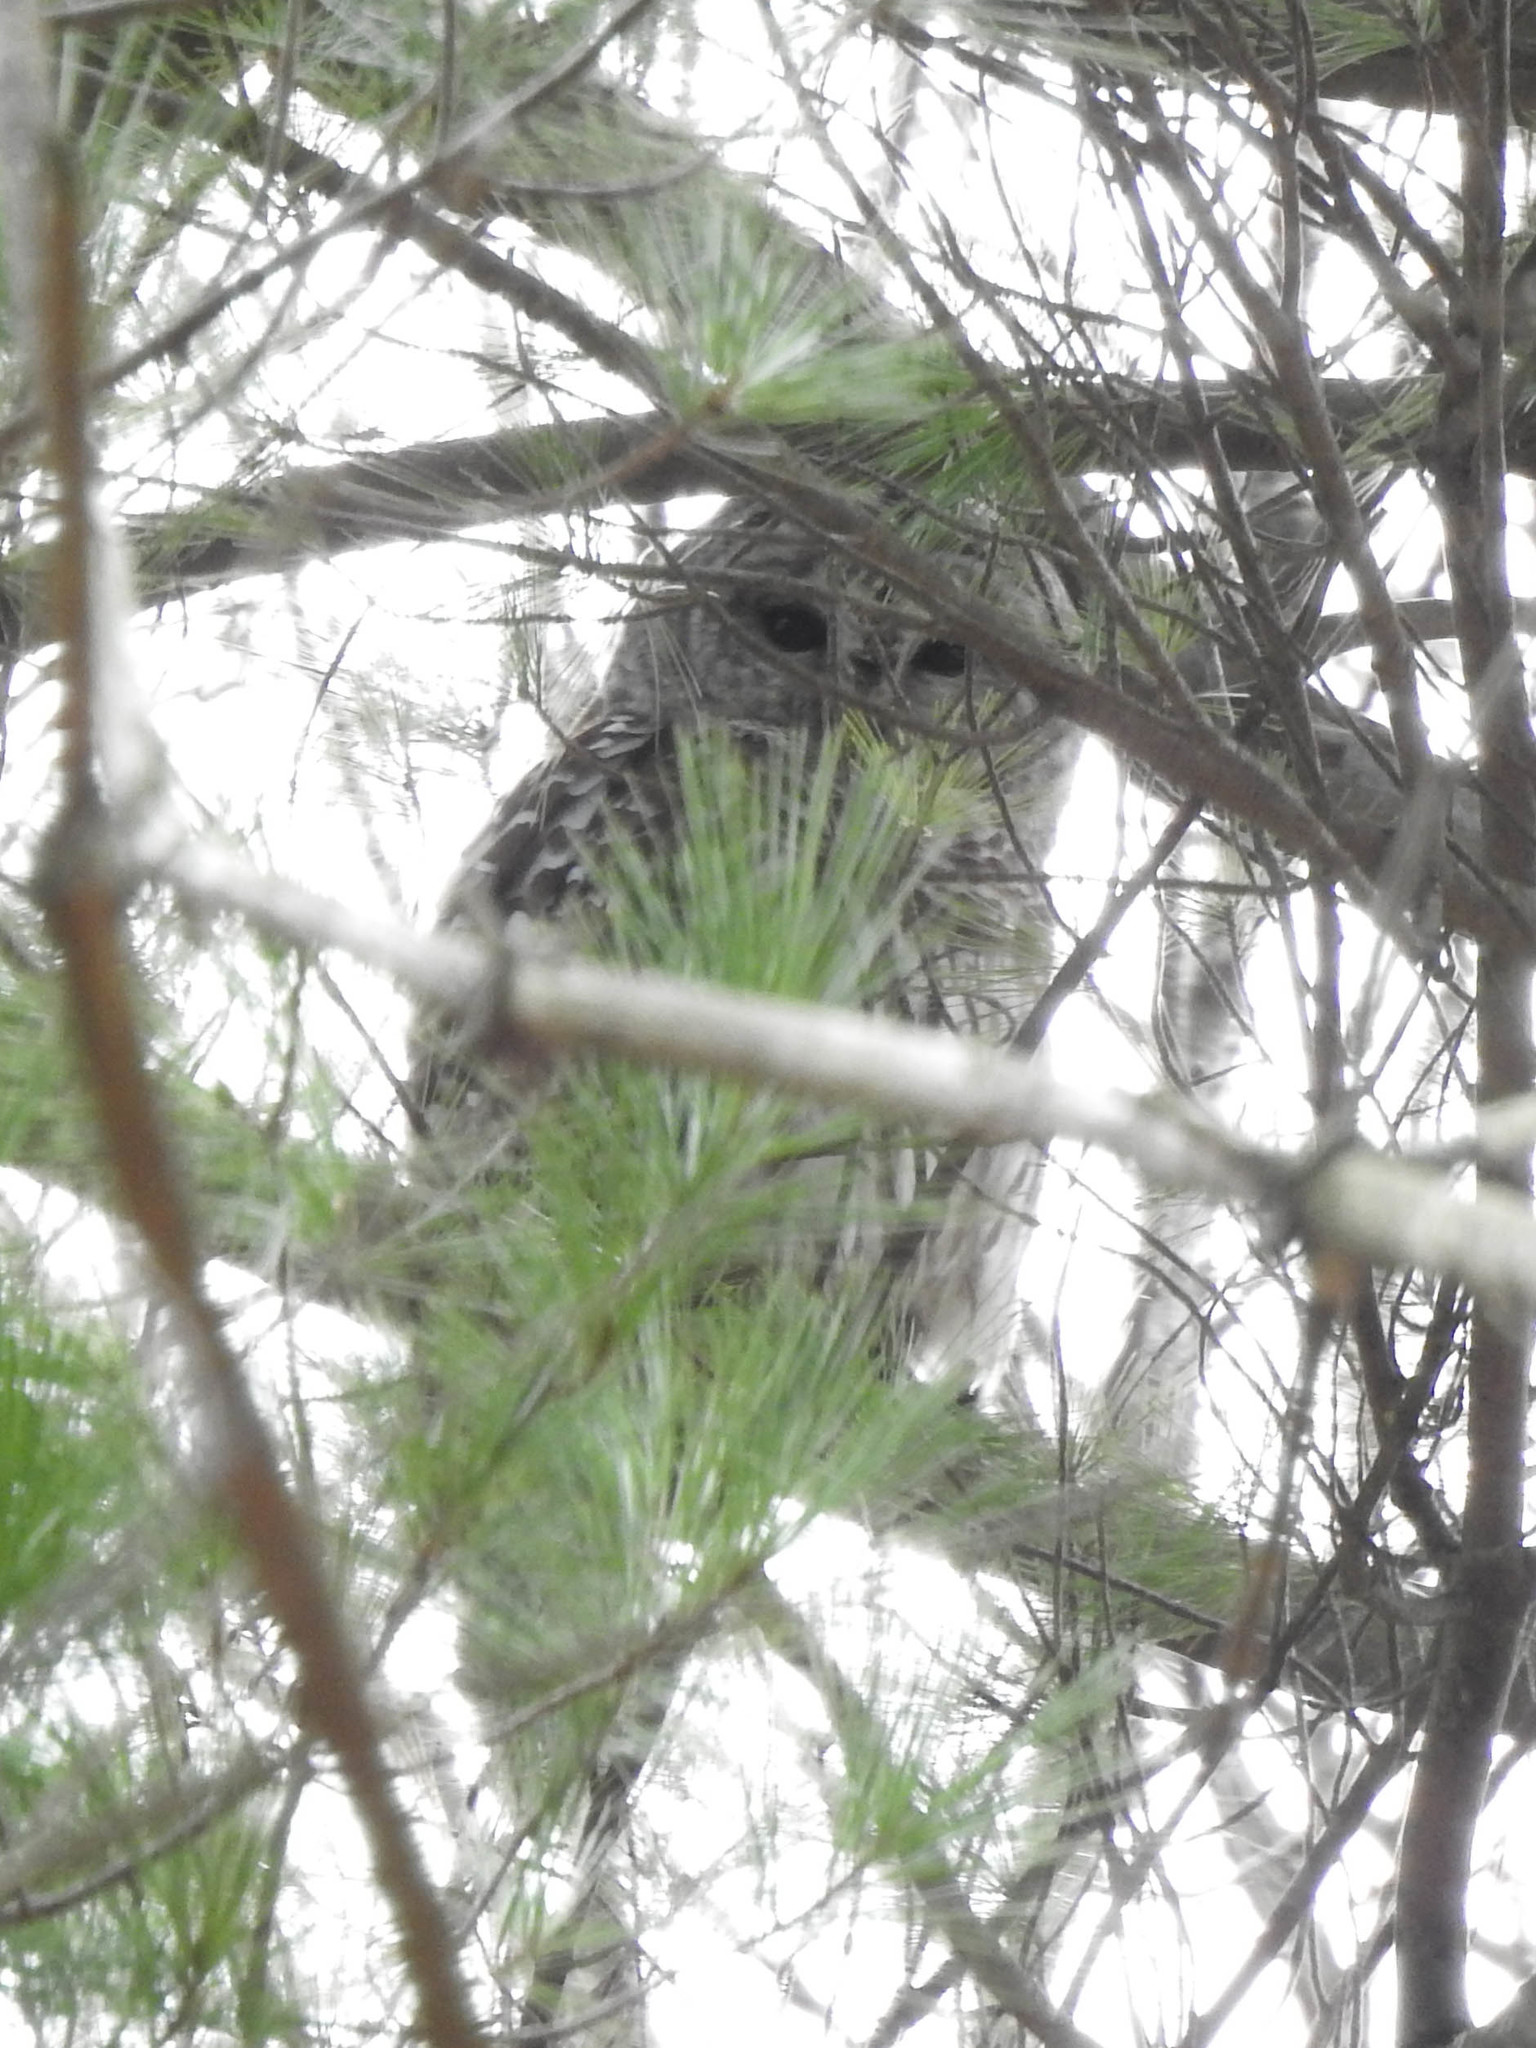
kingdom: Animalia
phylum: Chordata
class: Aves
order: Strigiformes
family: Strigidae
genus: Strix
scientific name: Strix varia
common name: Barred owl
